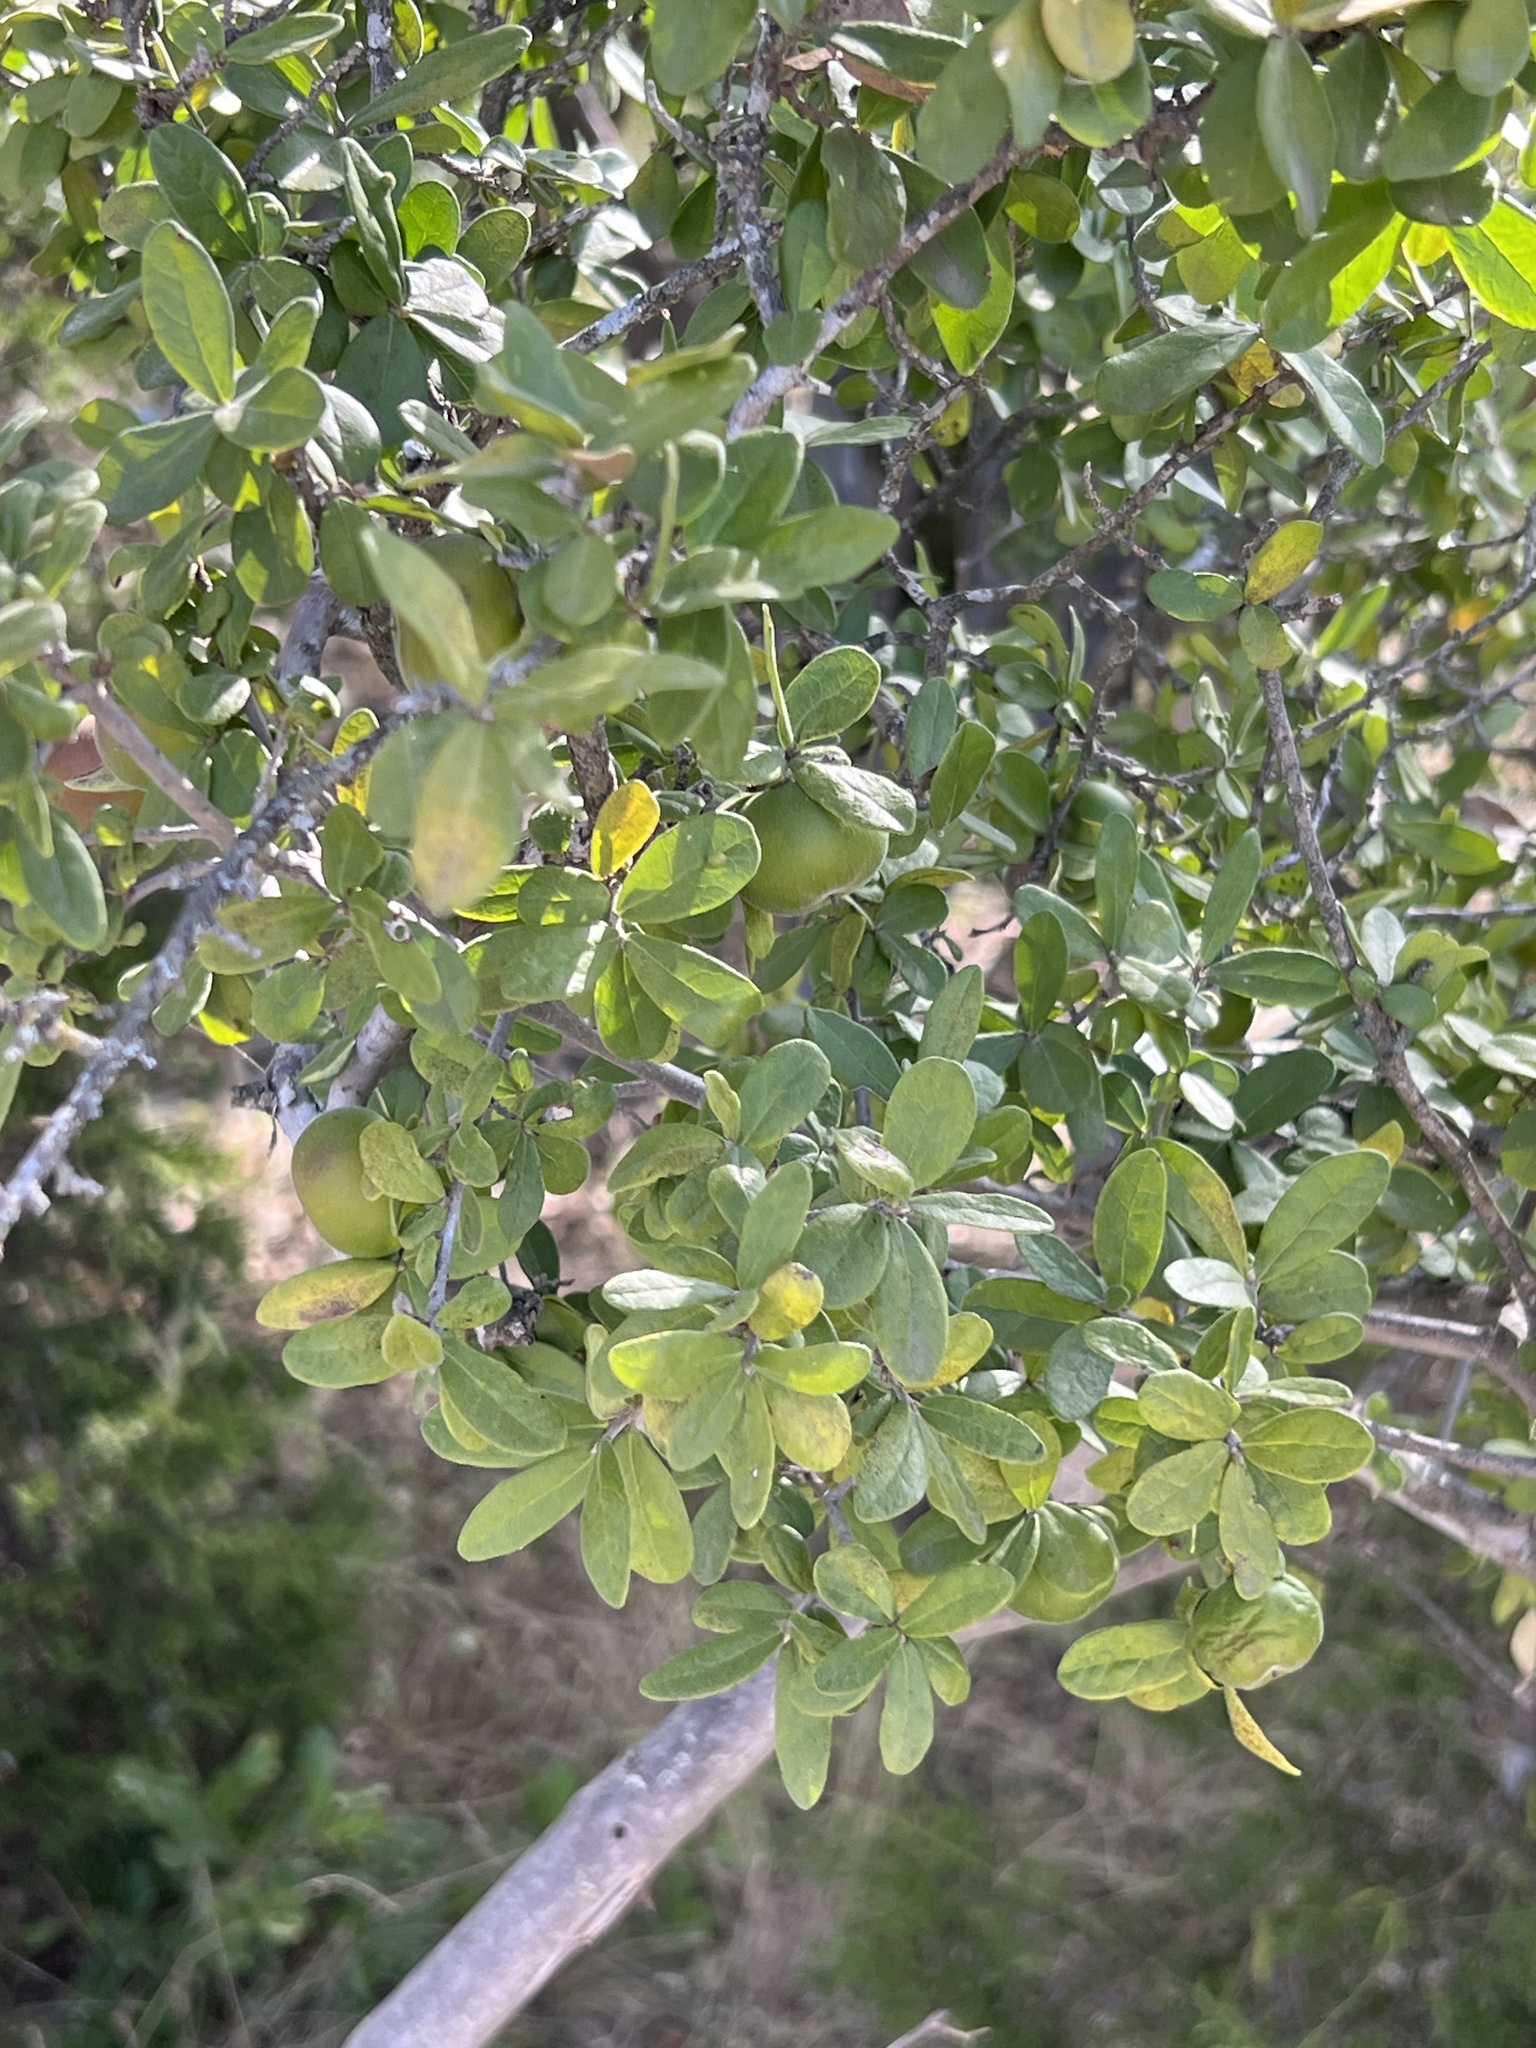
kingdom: Plantae
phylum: Tracheophyta
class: Magnoliopsida
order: Ericales
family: Ebenaceae
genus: Diospyros
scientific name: Diospyros texana
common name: Texas persimmon
